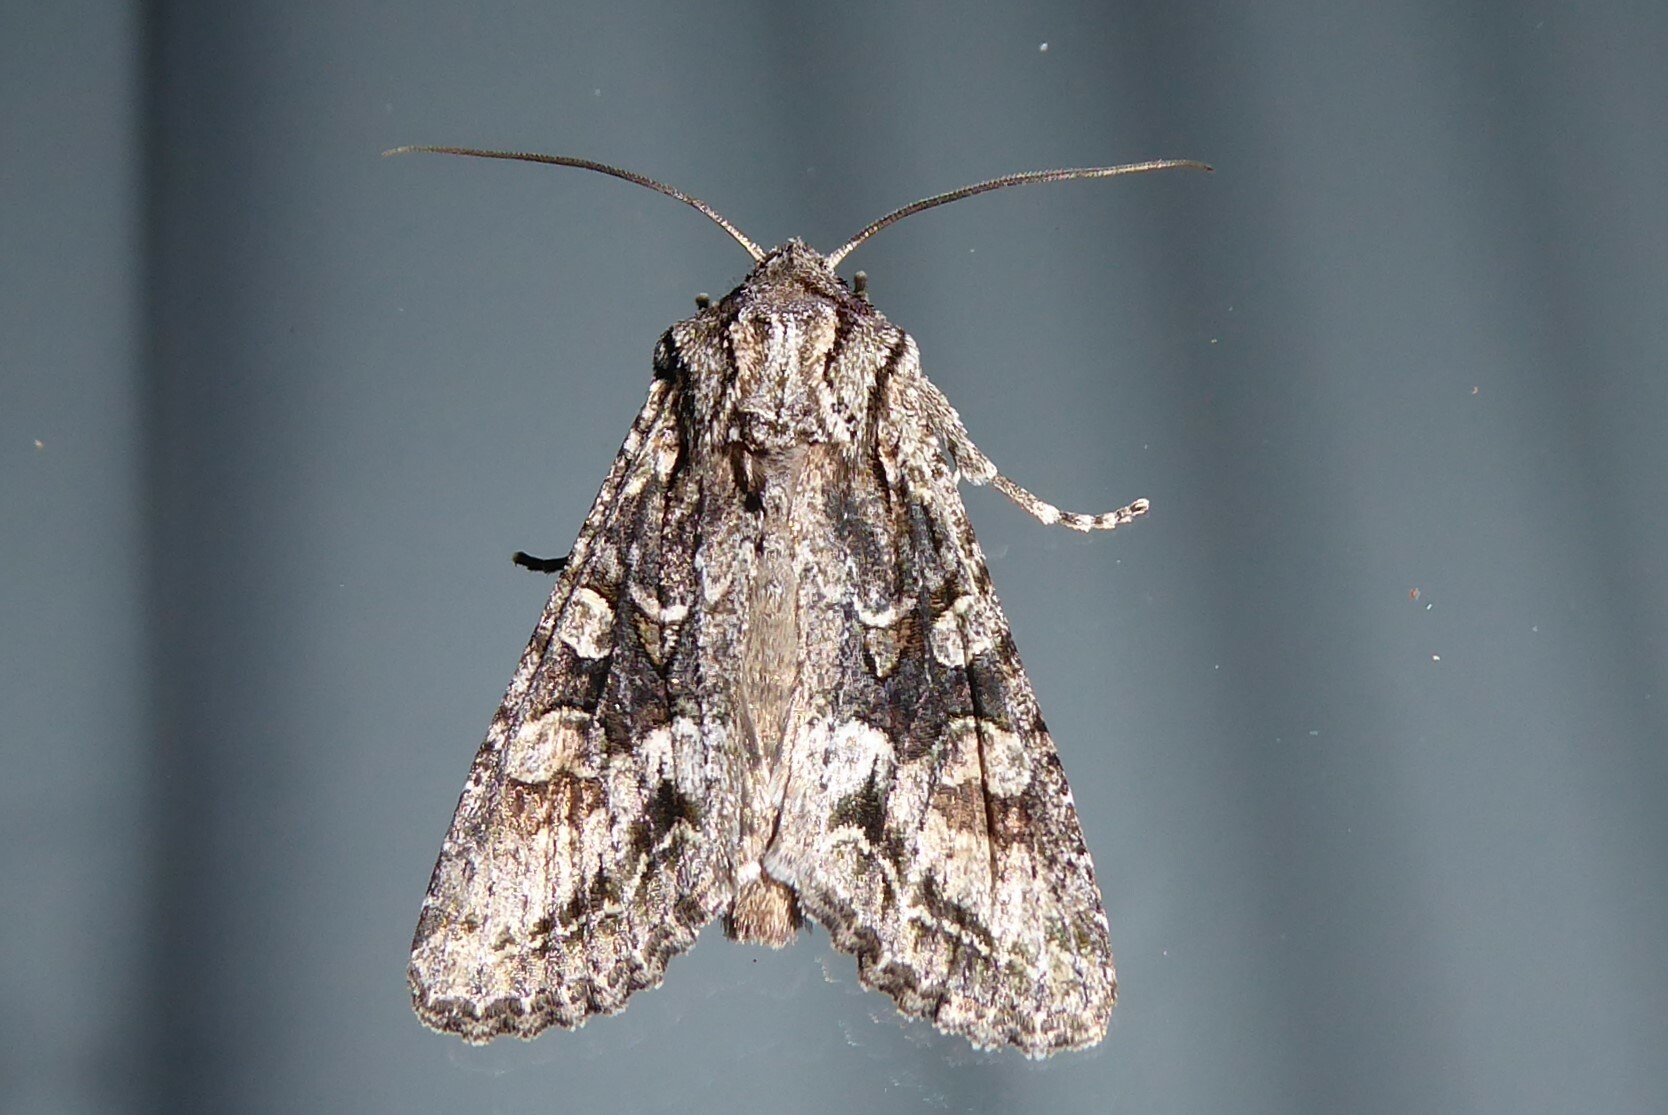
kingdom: Animalia
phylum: Arthropoda
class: Insecta
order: Lepidoptera
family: Noctuidae
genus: Ichneutica
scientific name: Ichneutica mutans
